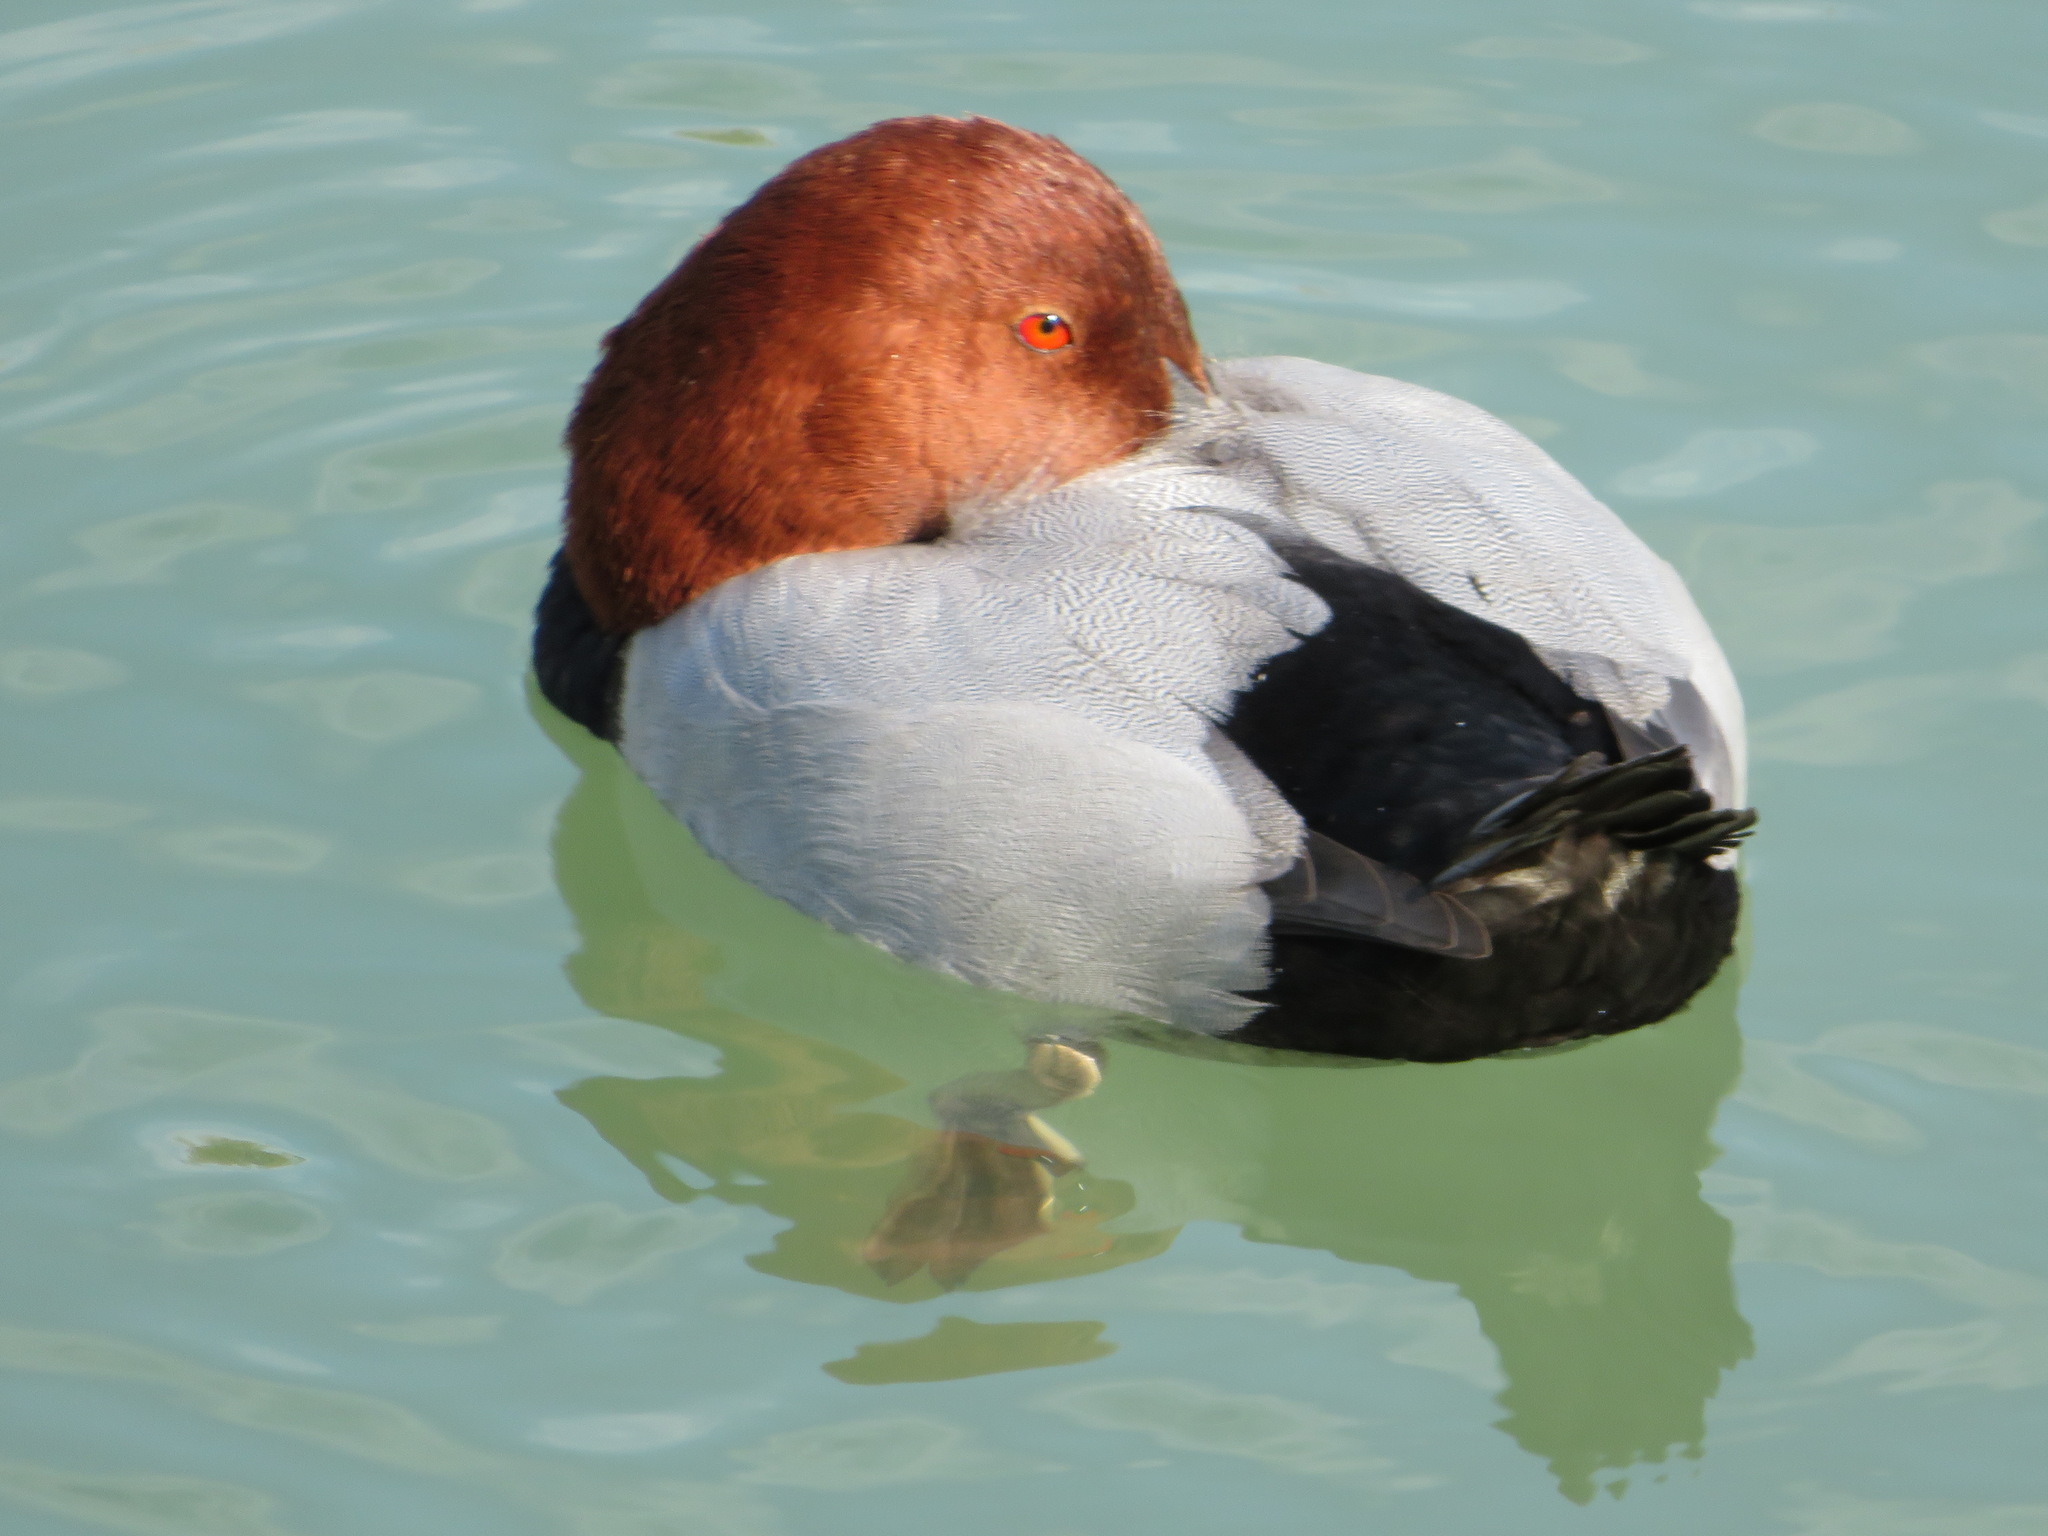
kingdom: Animalia
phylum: Chordata
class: Aves
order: Anseriformes
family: Anatidae
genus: Aythya
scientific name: Aythya ferina
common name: Common pochard
